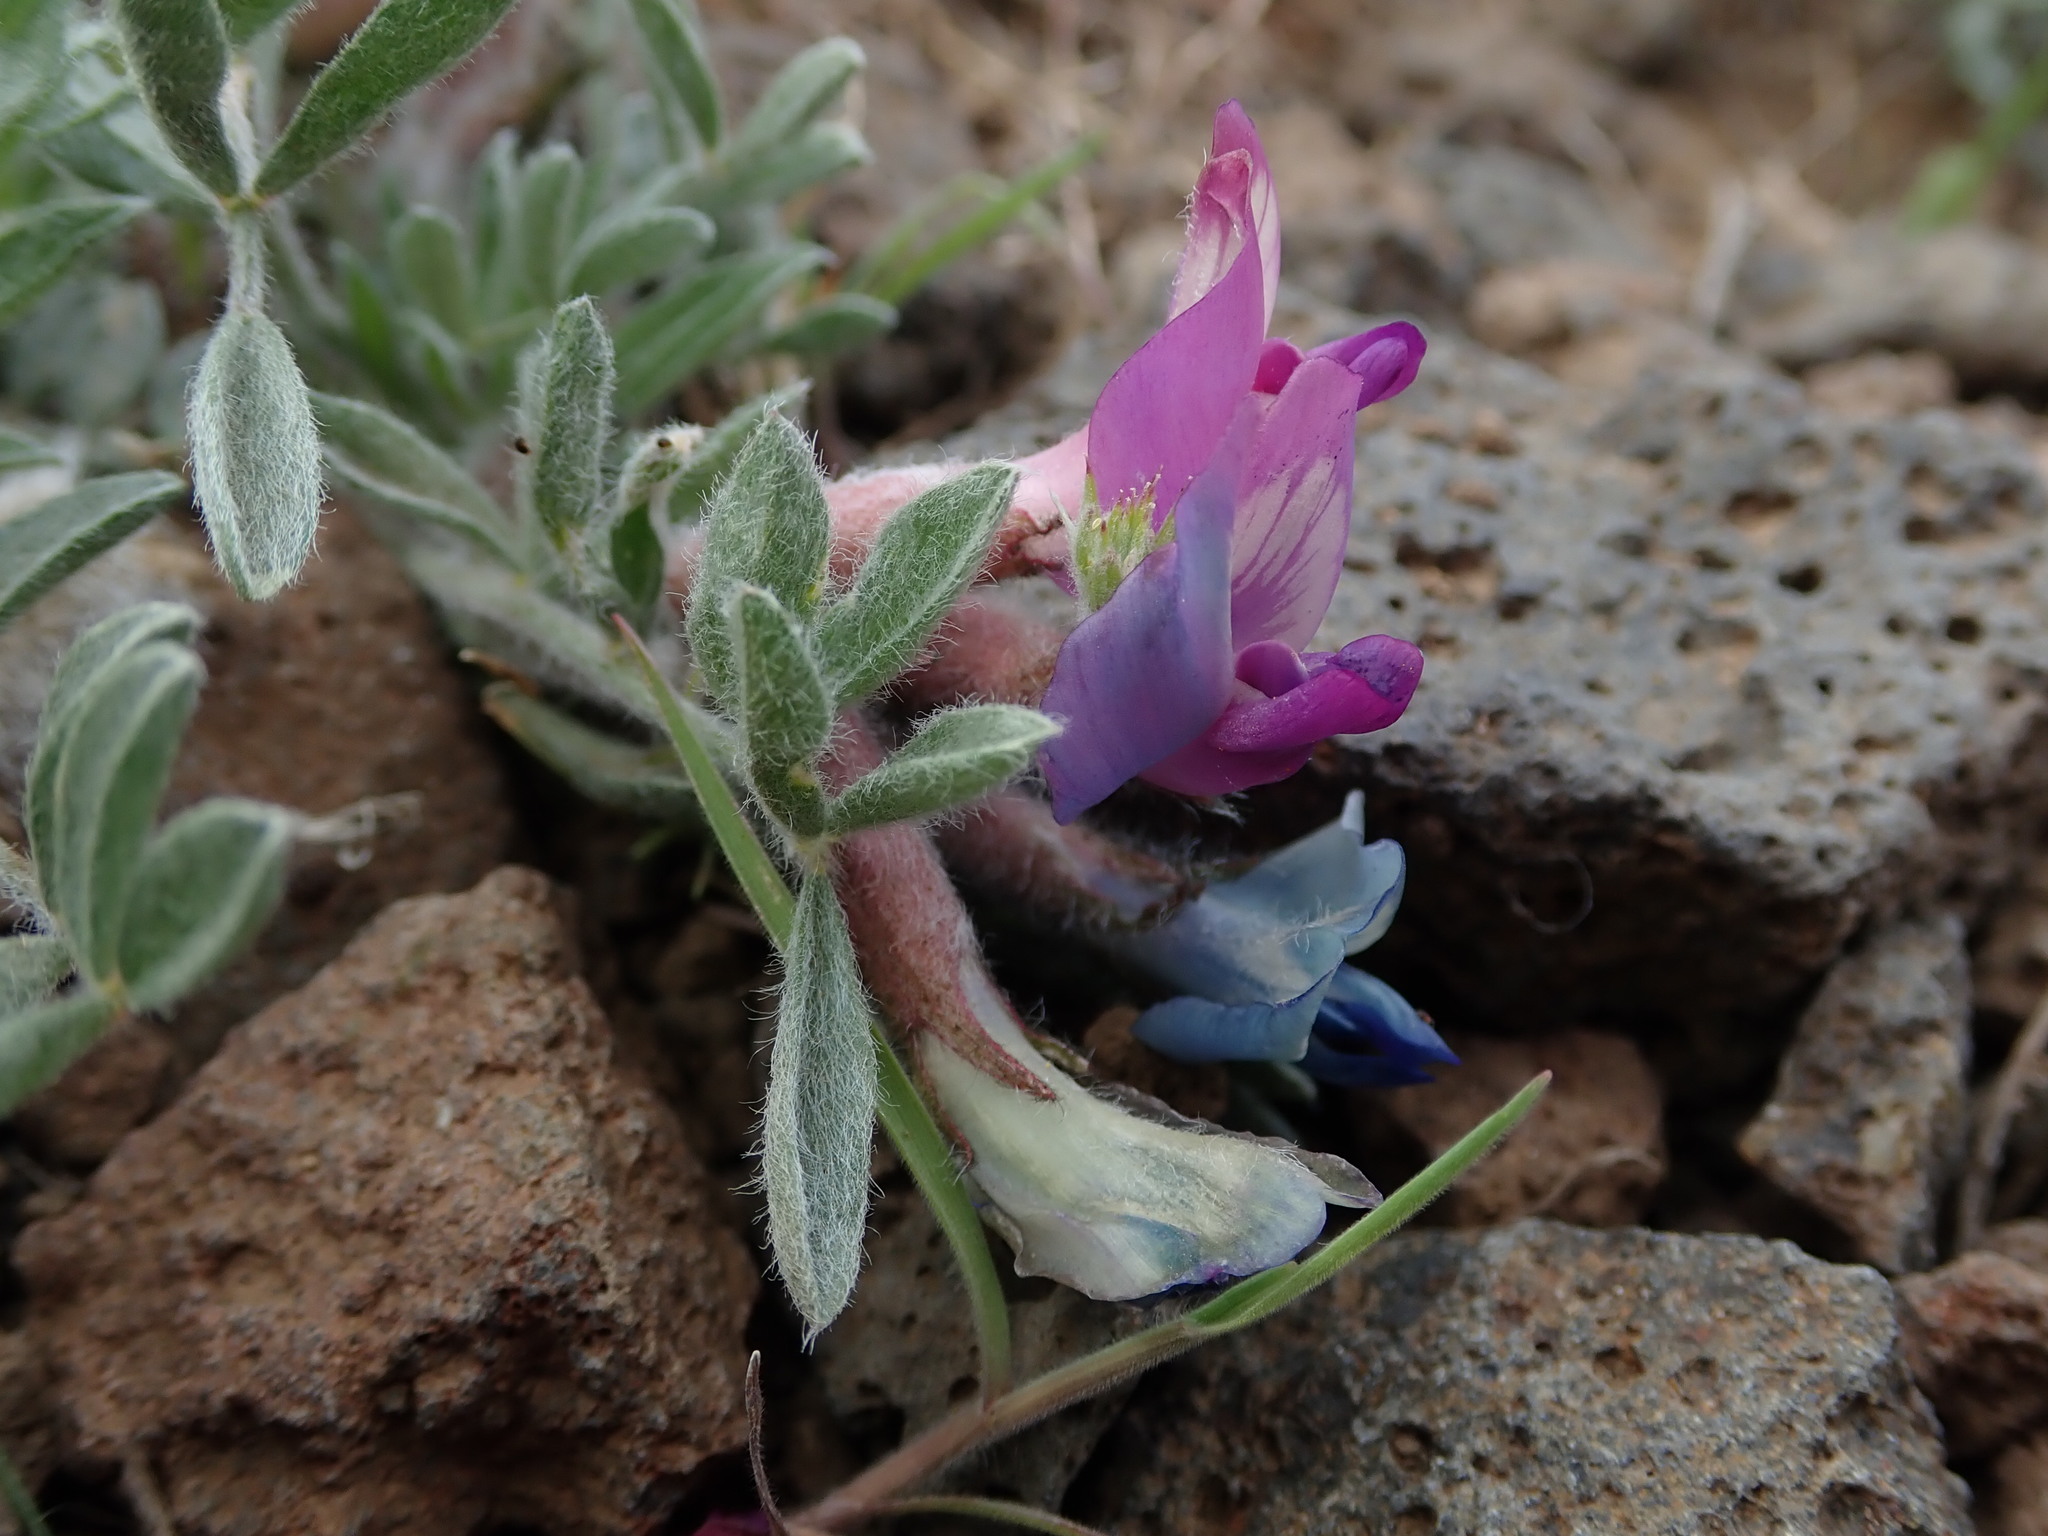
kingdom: Plantae
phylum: Tracheophyta
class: Magnoliopsida
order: Fabales
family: Fabaceae
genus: Astragalus
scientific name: Astragalus purshii
